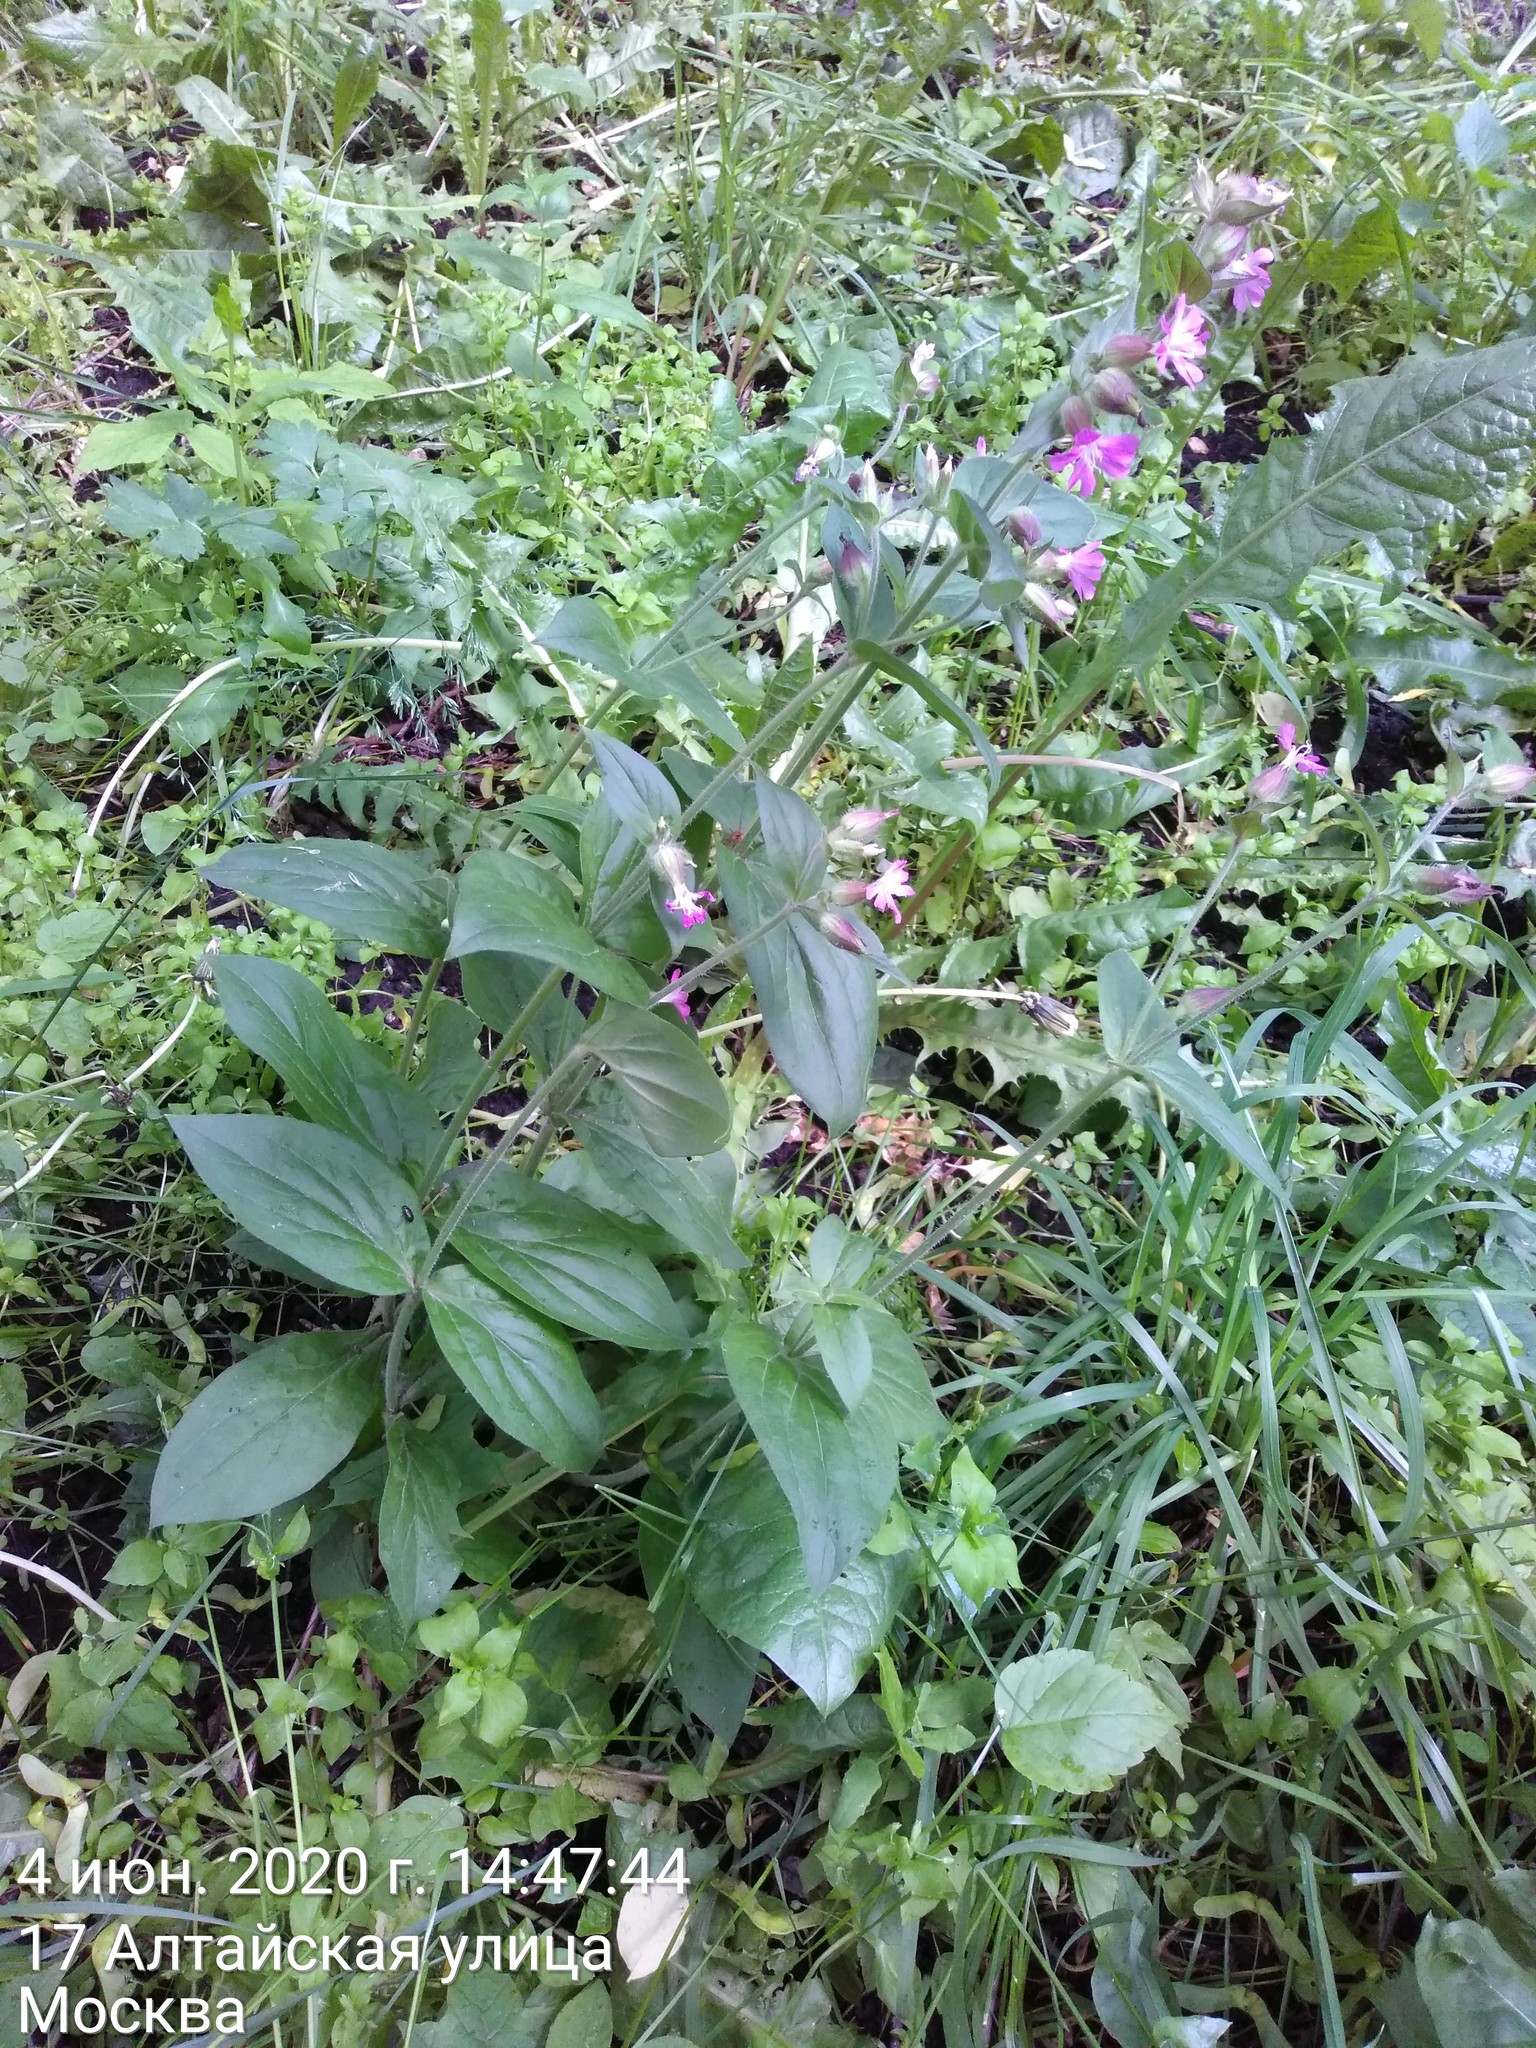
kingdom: Plantae
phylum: Tracheophyta
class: Magnoliopsida
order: Caryophyllales
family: Caryophyllaceae
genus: Silene
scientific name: Silene dioica
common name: Red campion
